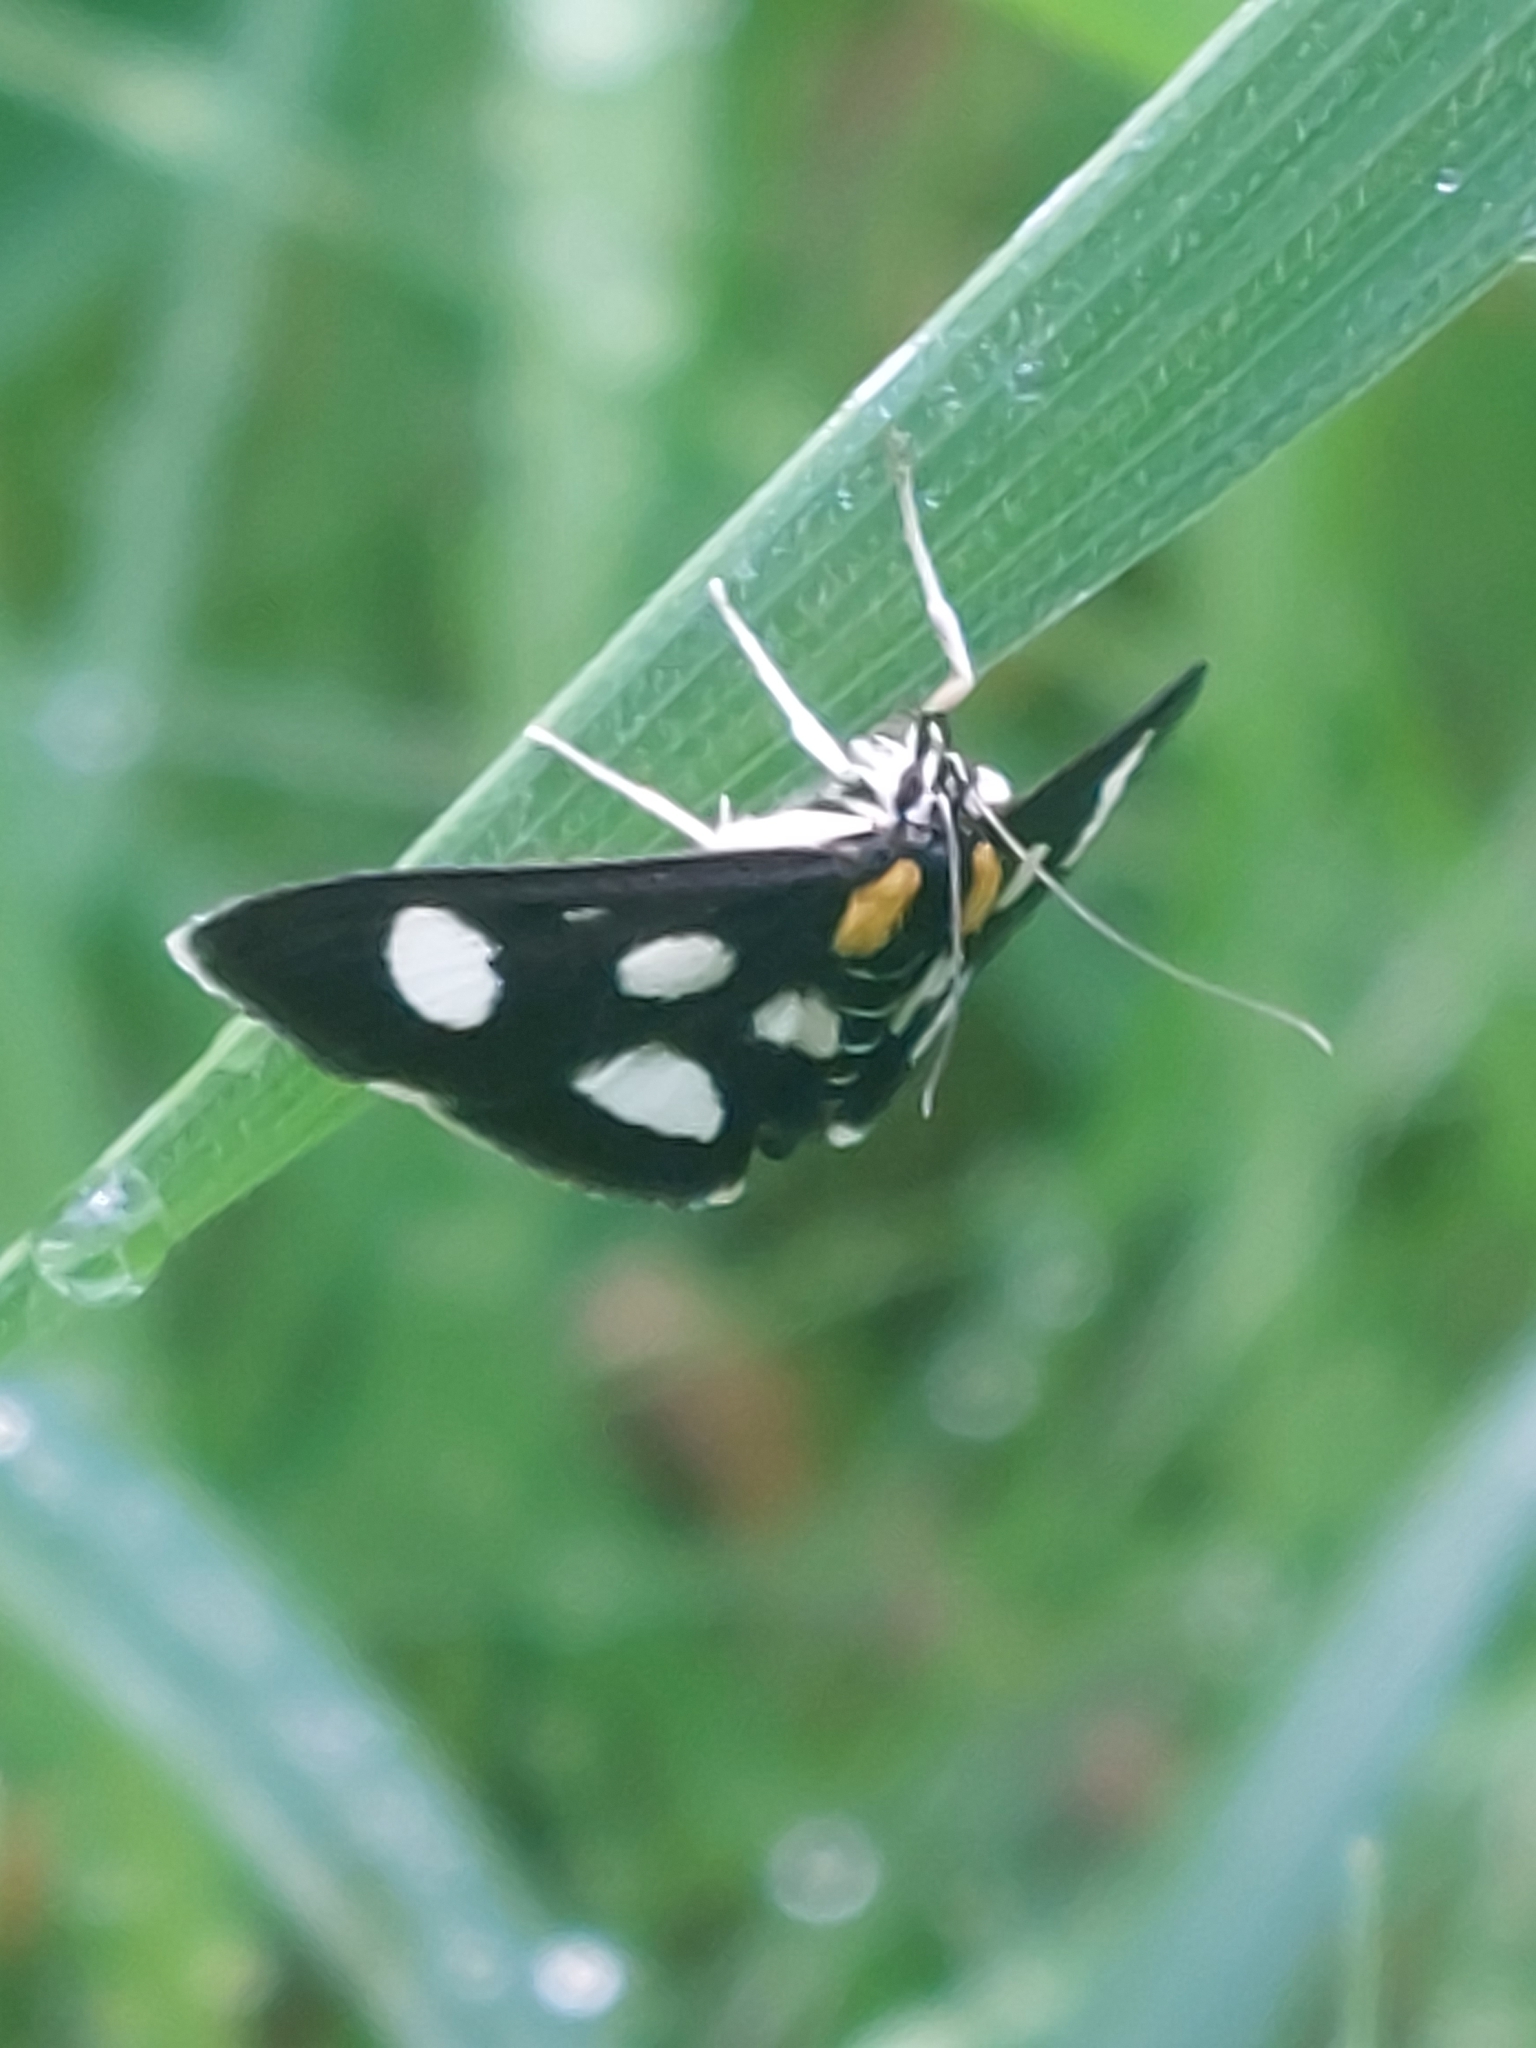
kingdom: Animalia
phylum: Arthropoda
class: Insecta
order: Lepidoptera
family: Crambidae
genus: Anania
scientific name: Anania funebris
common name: White-spotted sable moth
